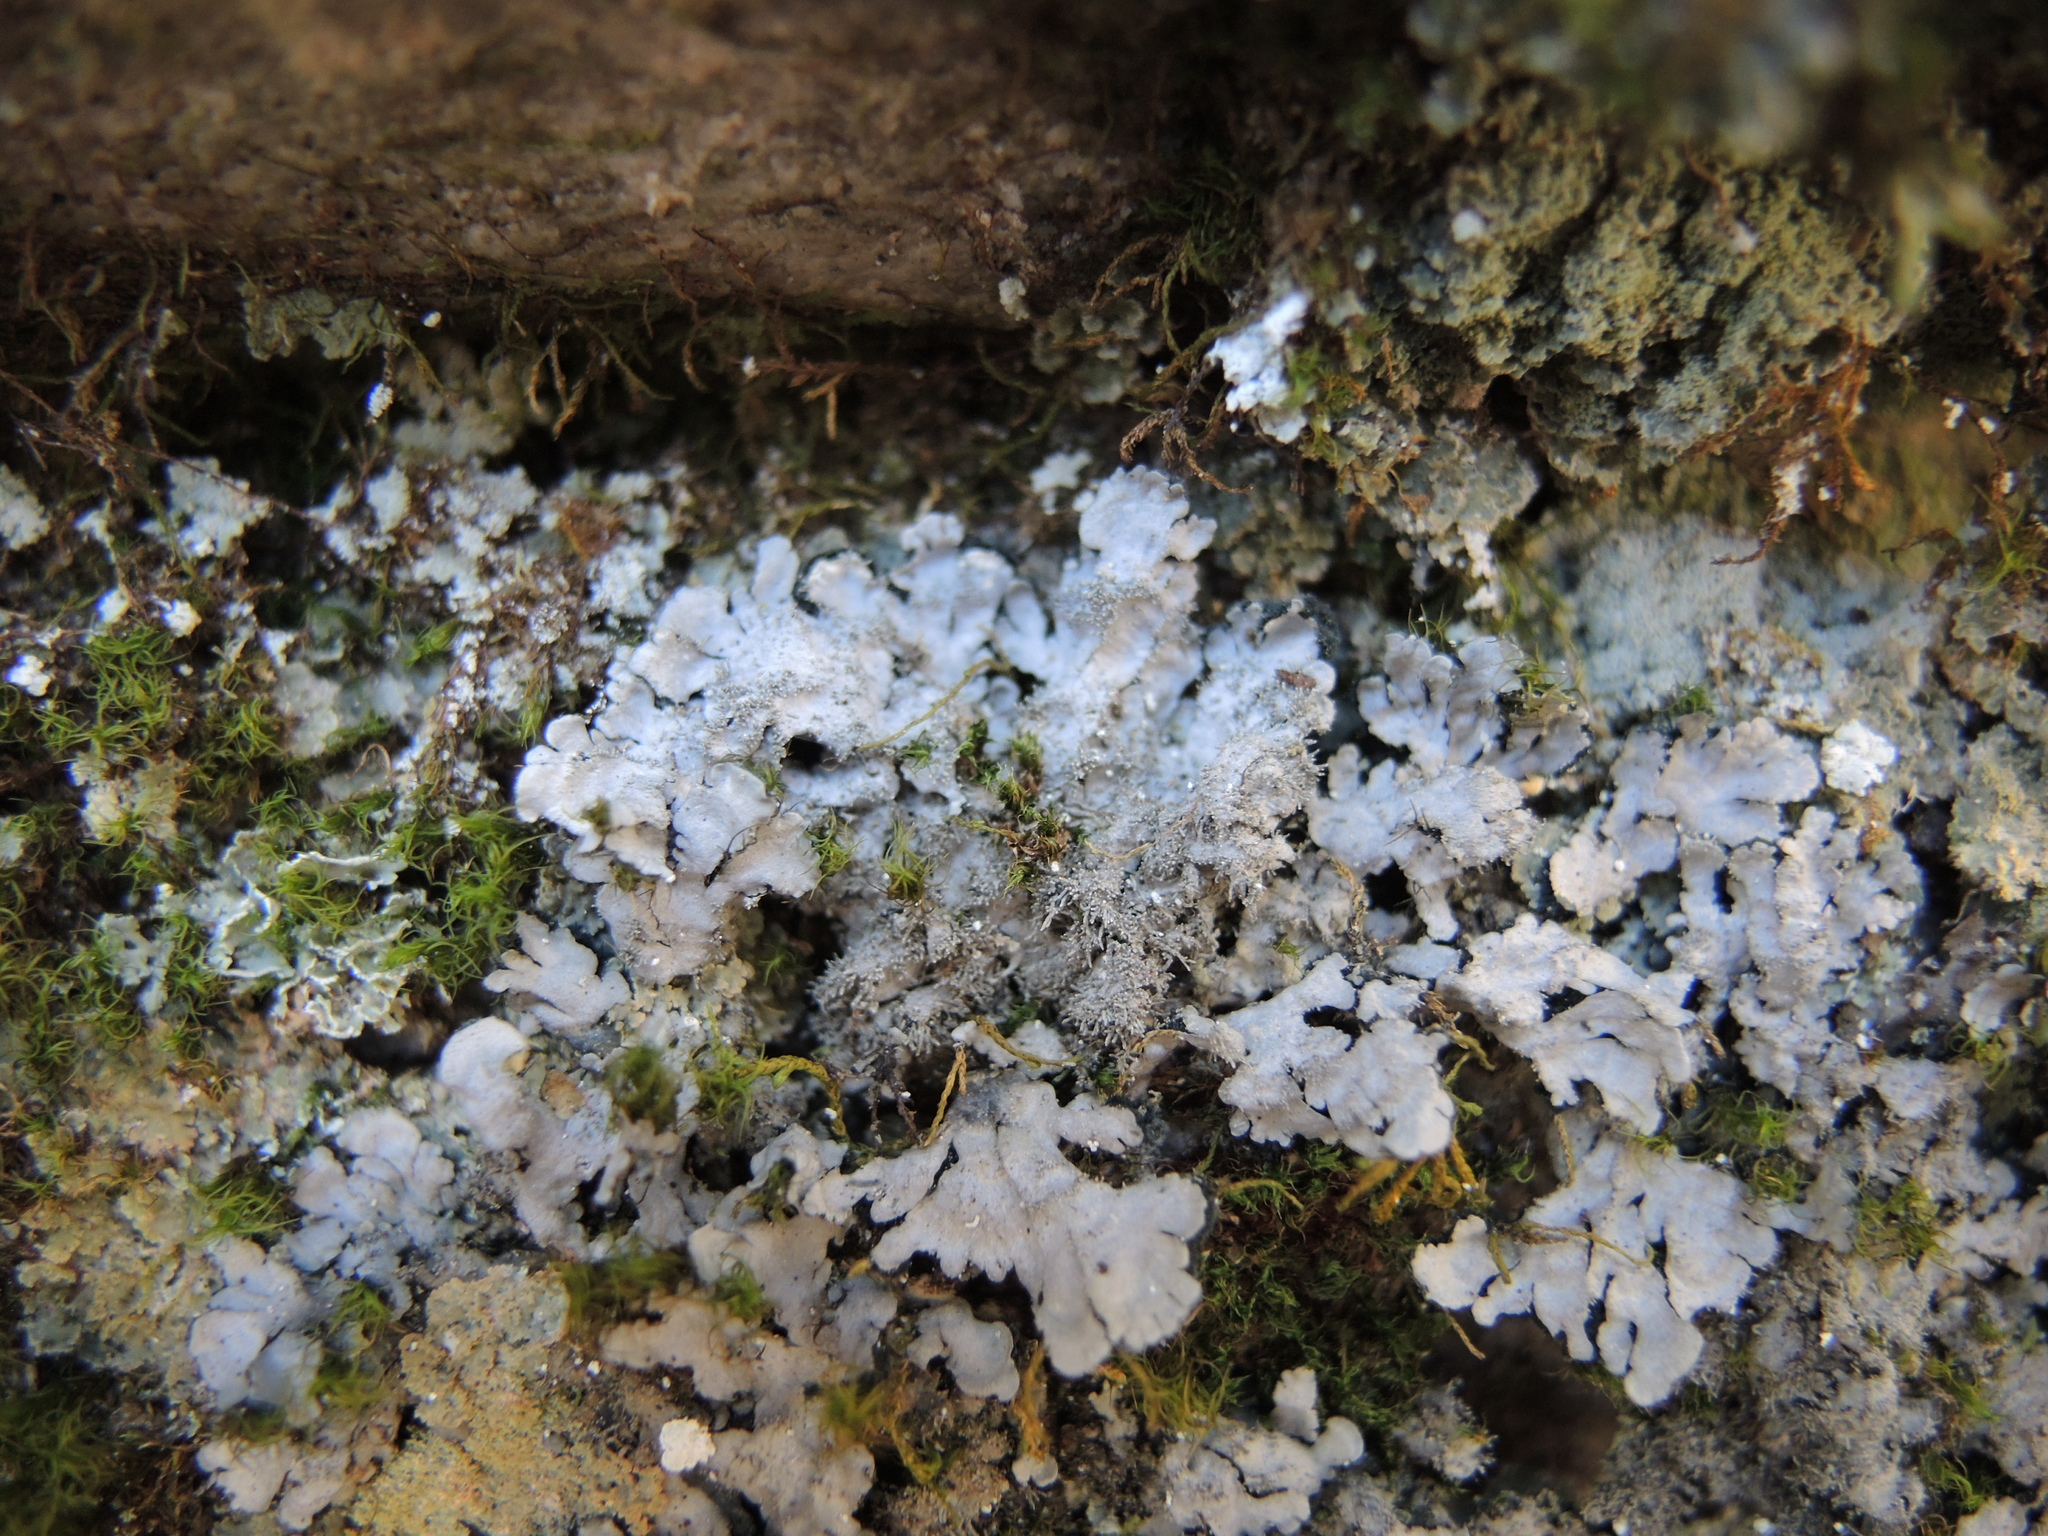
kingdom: Fungi
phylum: Ascomycota
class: Lecanoromycetes
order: Peltigerales
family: Coccocarpiaceae
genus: Coccocarpia
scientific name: Coccocarpia palmicola
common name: Salted shell lichen
